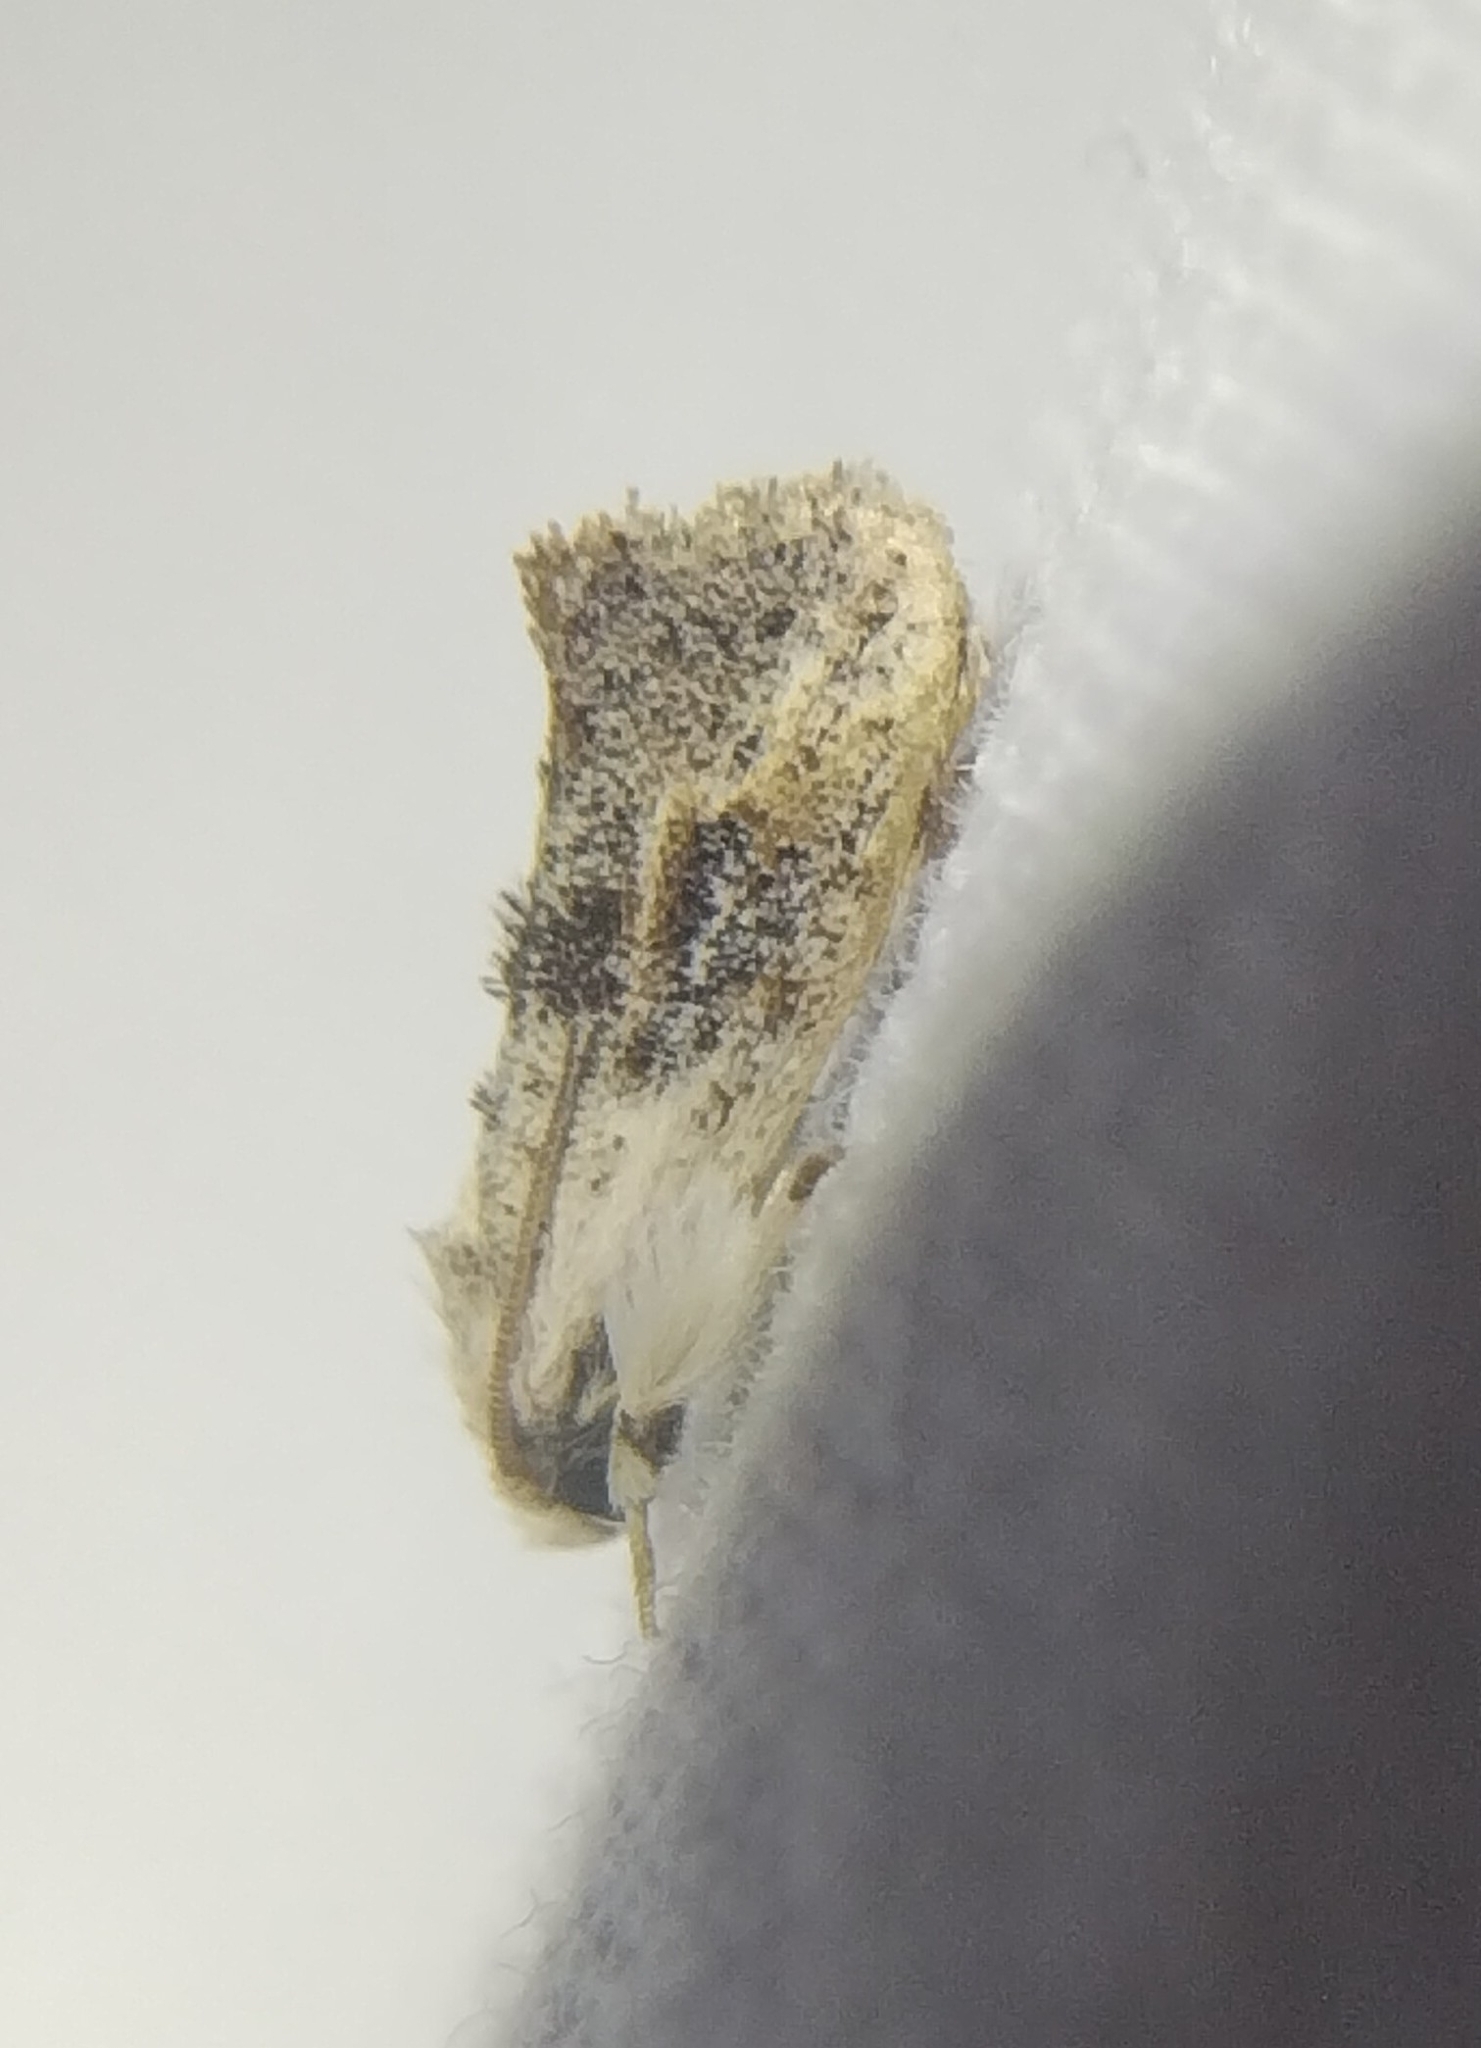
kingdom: Animalia
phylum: Arthropoda
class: Insecta
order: Lepidoptera
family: Tineidae
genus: Acrolophus
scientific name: Acrolophus mycetophagus
